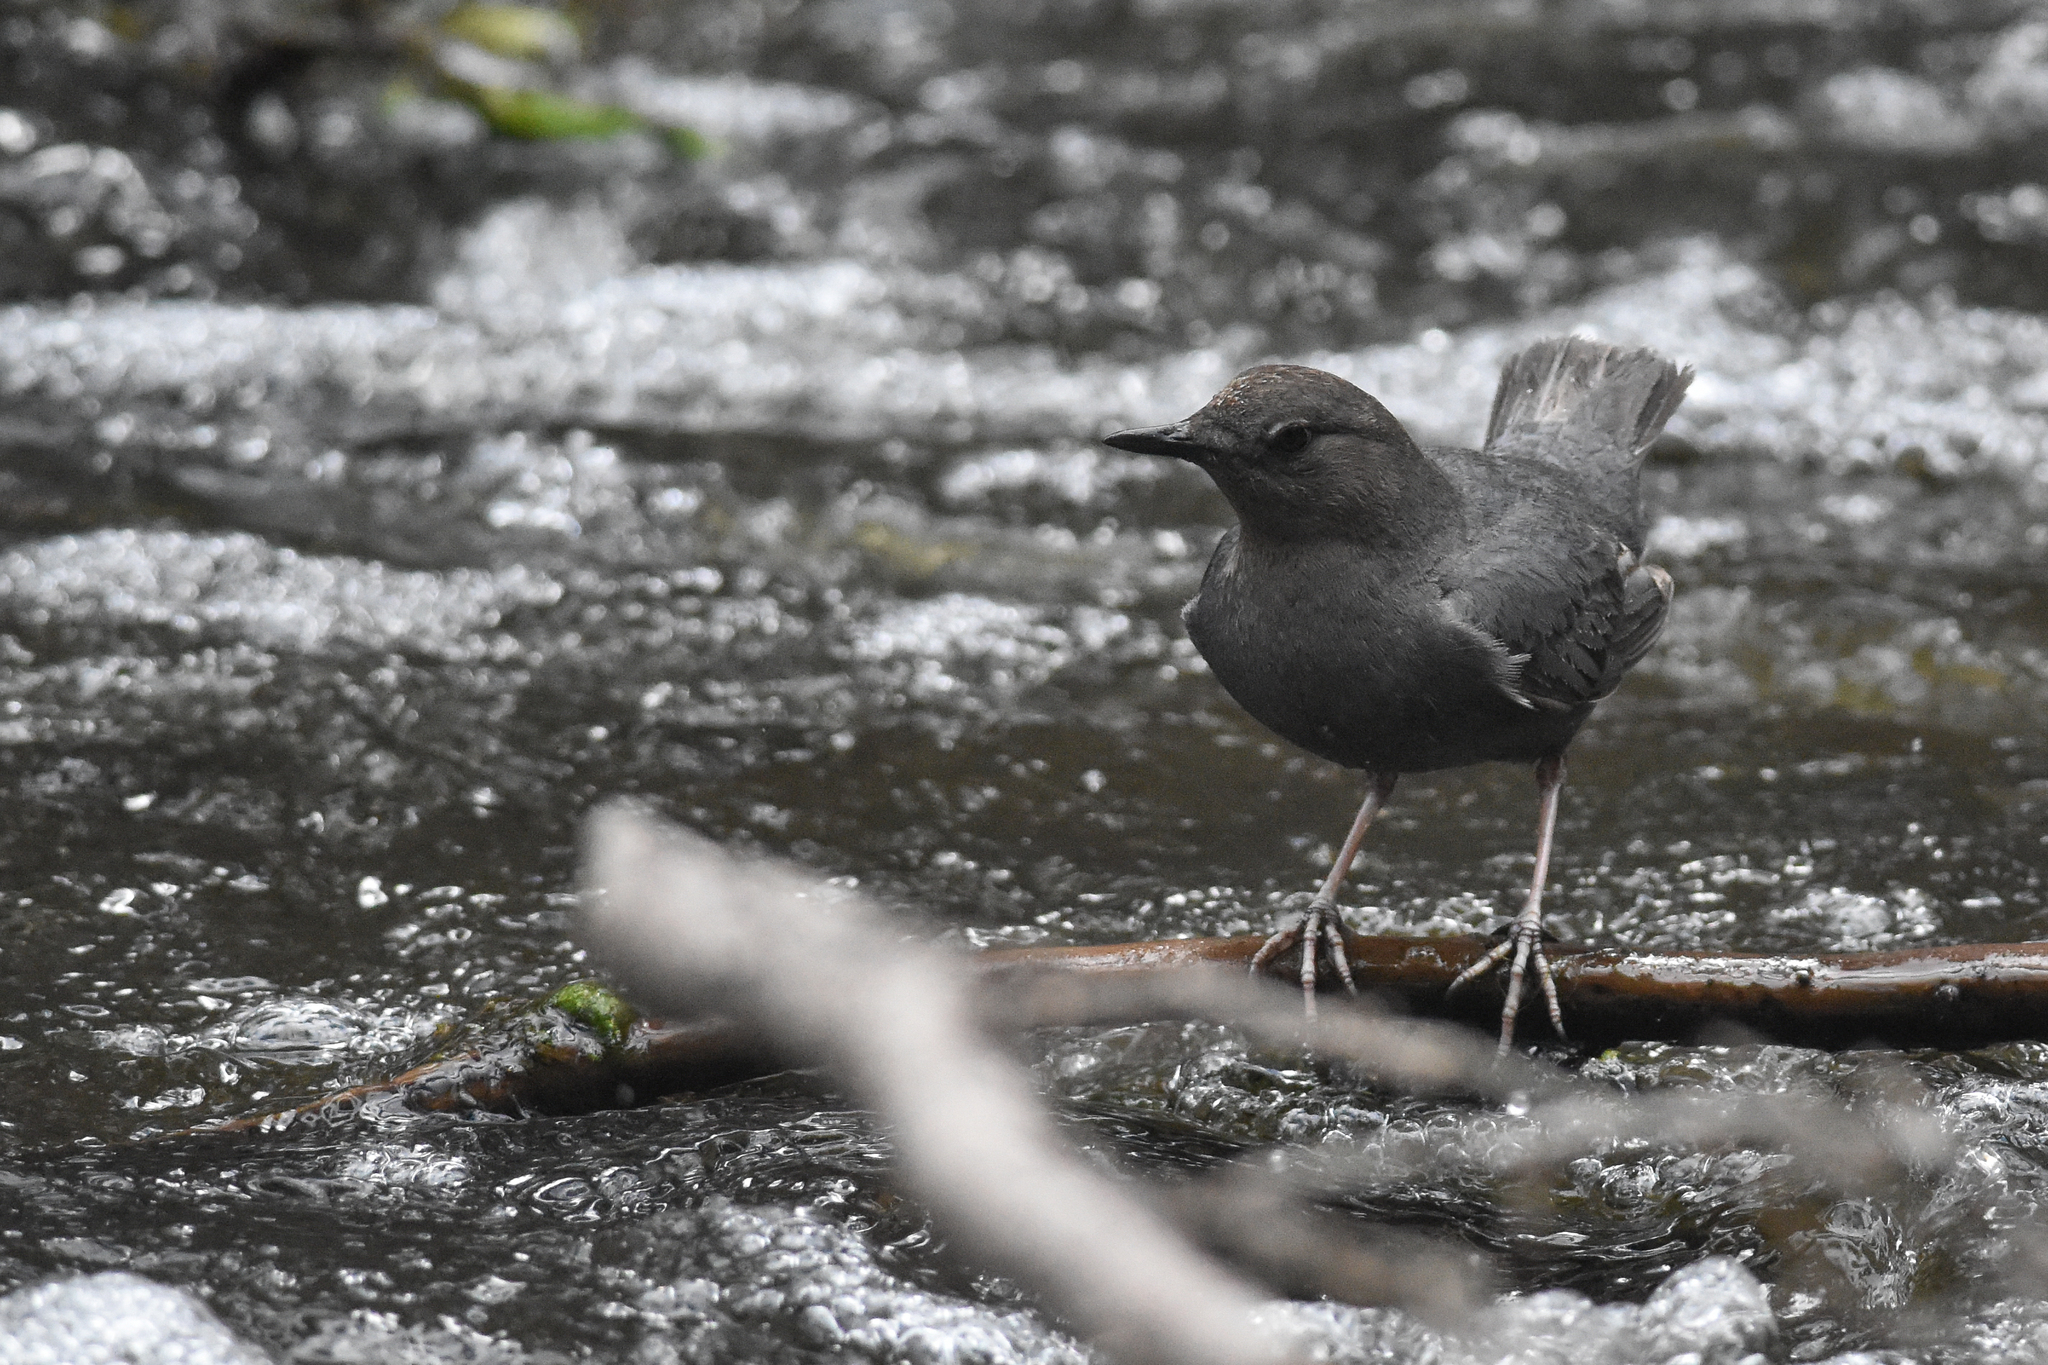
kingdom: Animalia
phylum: Chordata
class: Aves
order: Passeriformes
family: Cinclidae
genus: Cinclus
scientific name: Cinclus mexicanus
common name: American dipper
